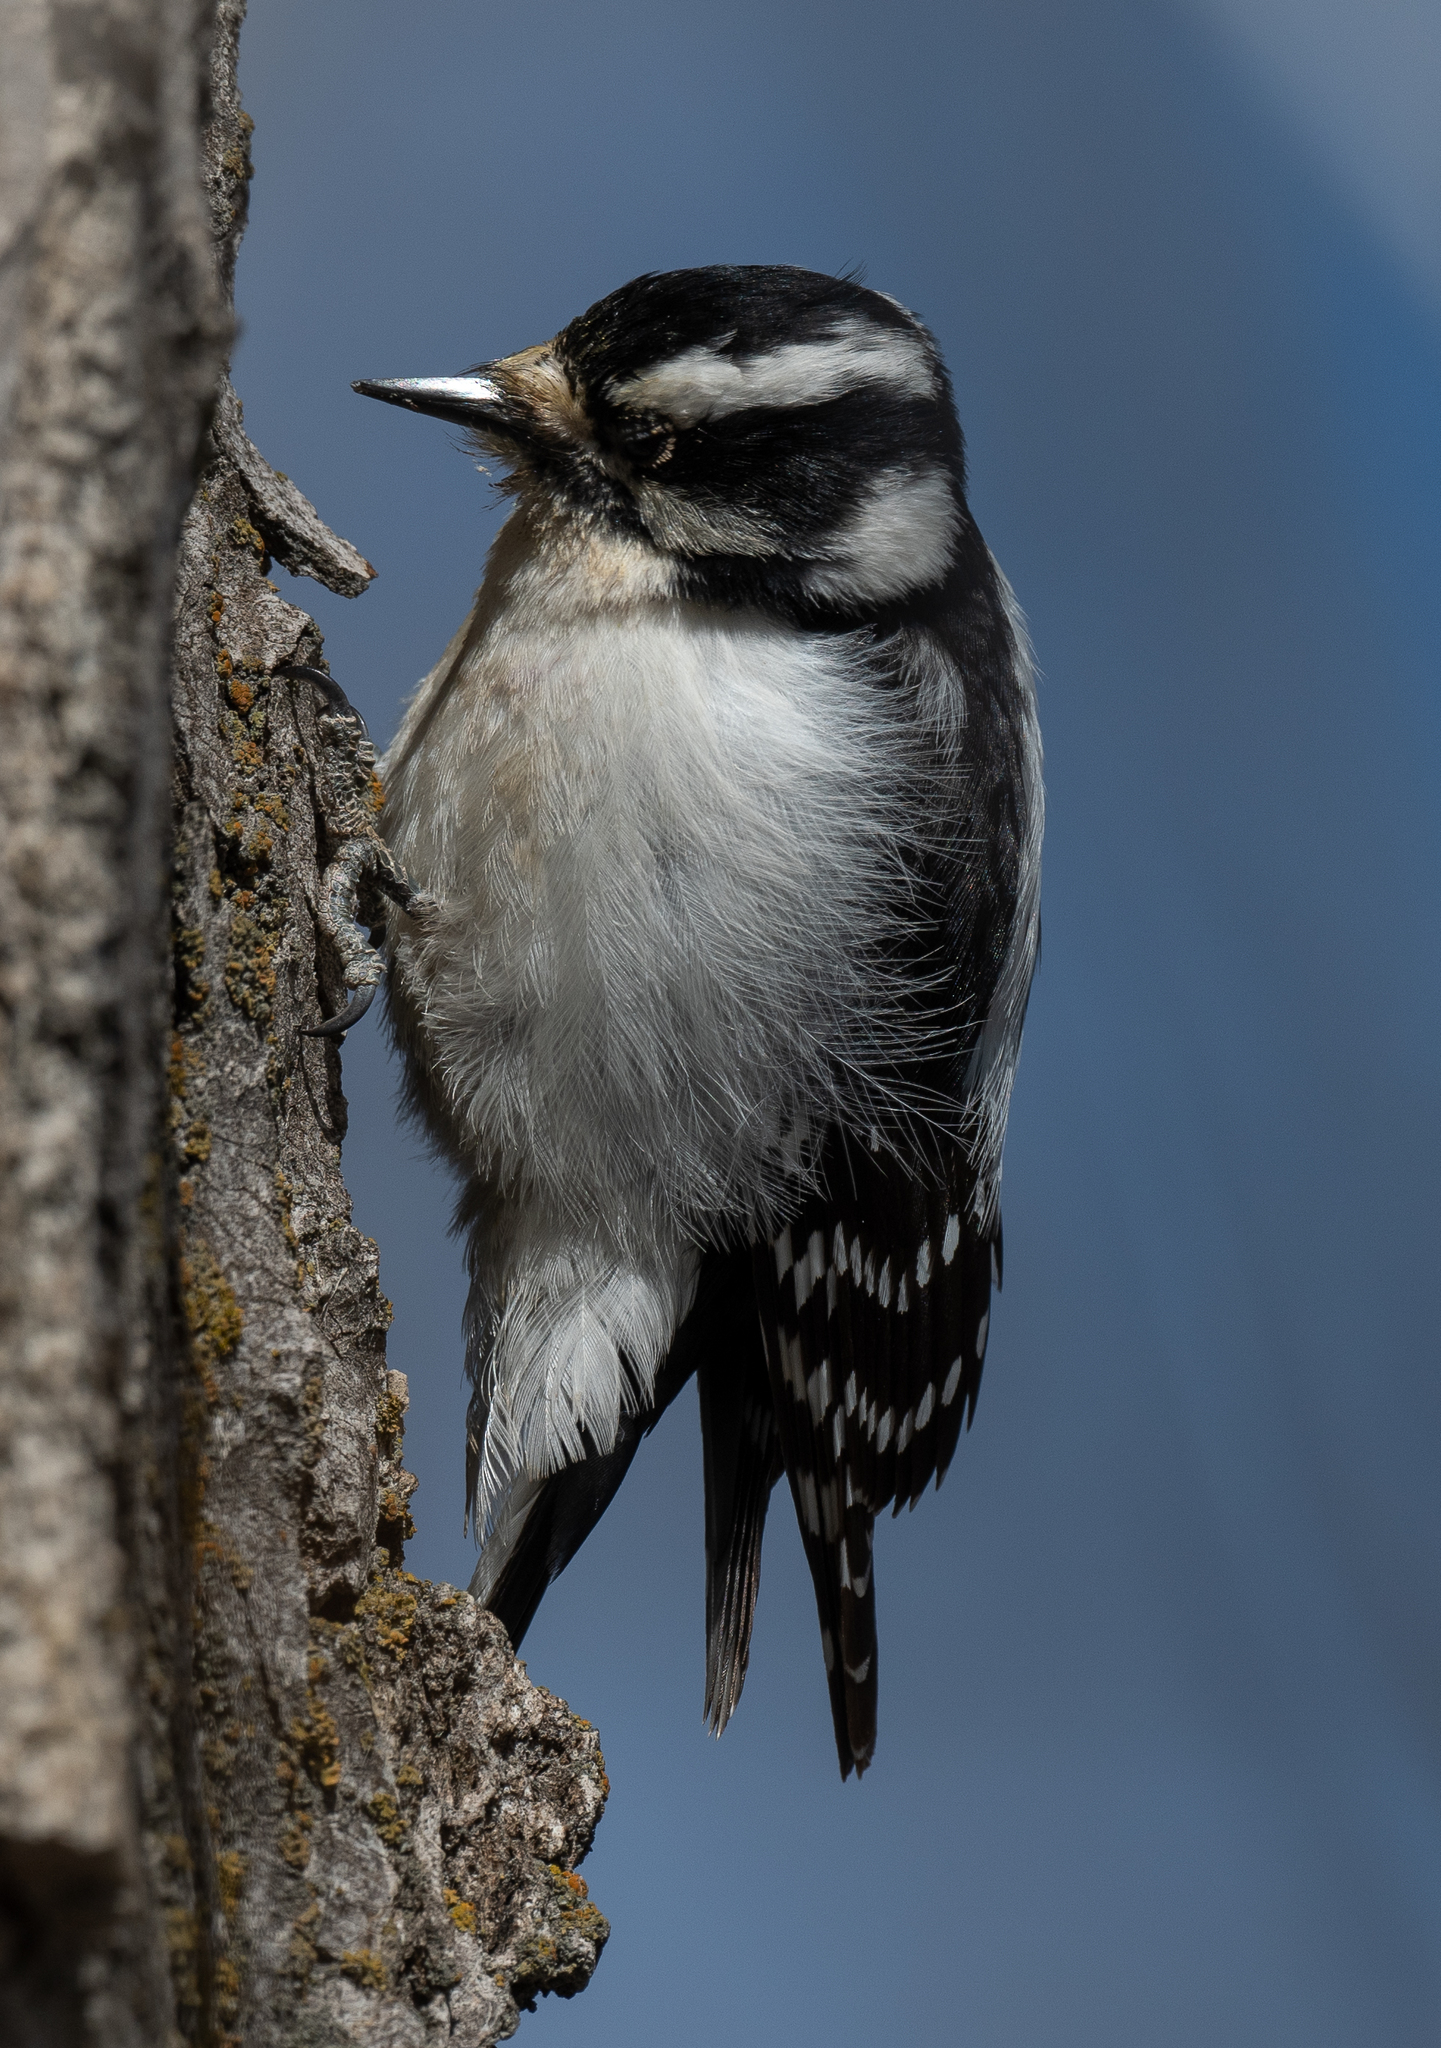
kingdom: Animalia
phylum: Chordata
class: Aves
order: Piciformes
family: Picidae
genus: Dryobates
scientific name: Dryobates pubescens
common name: Downy woodpecker
